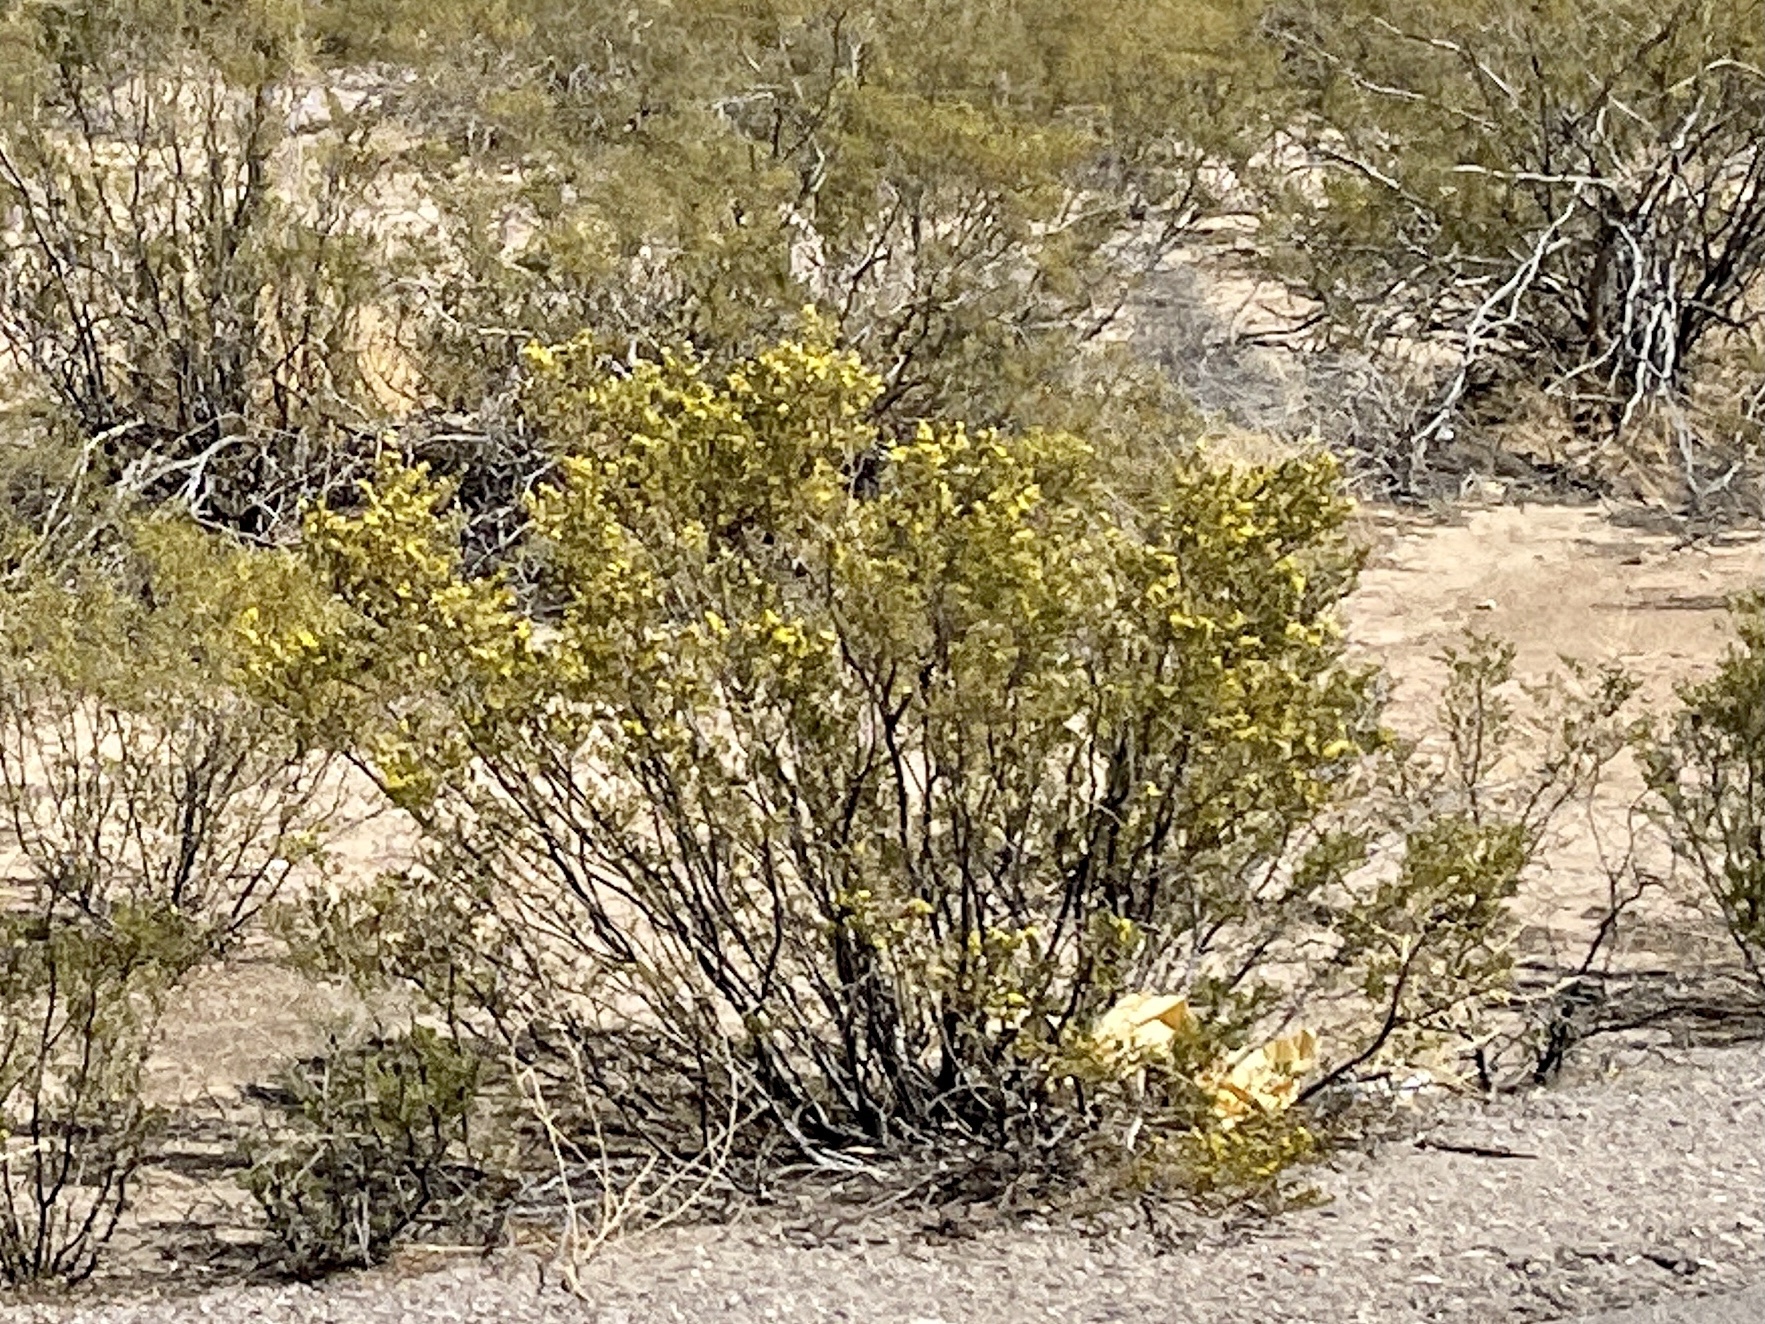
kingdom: Plantae
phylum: Tracheophyta
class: Magnoliopsida
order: Zygophyllales
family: Zygophyllaceae
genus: Larrea
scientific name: Larrea tridentata
